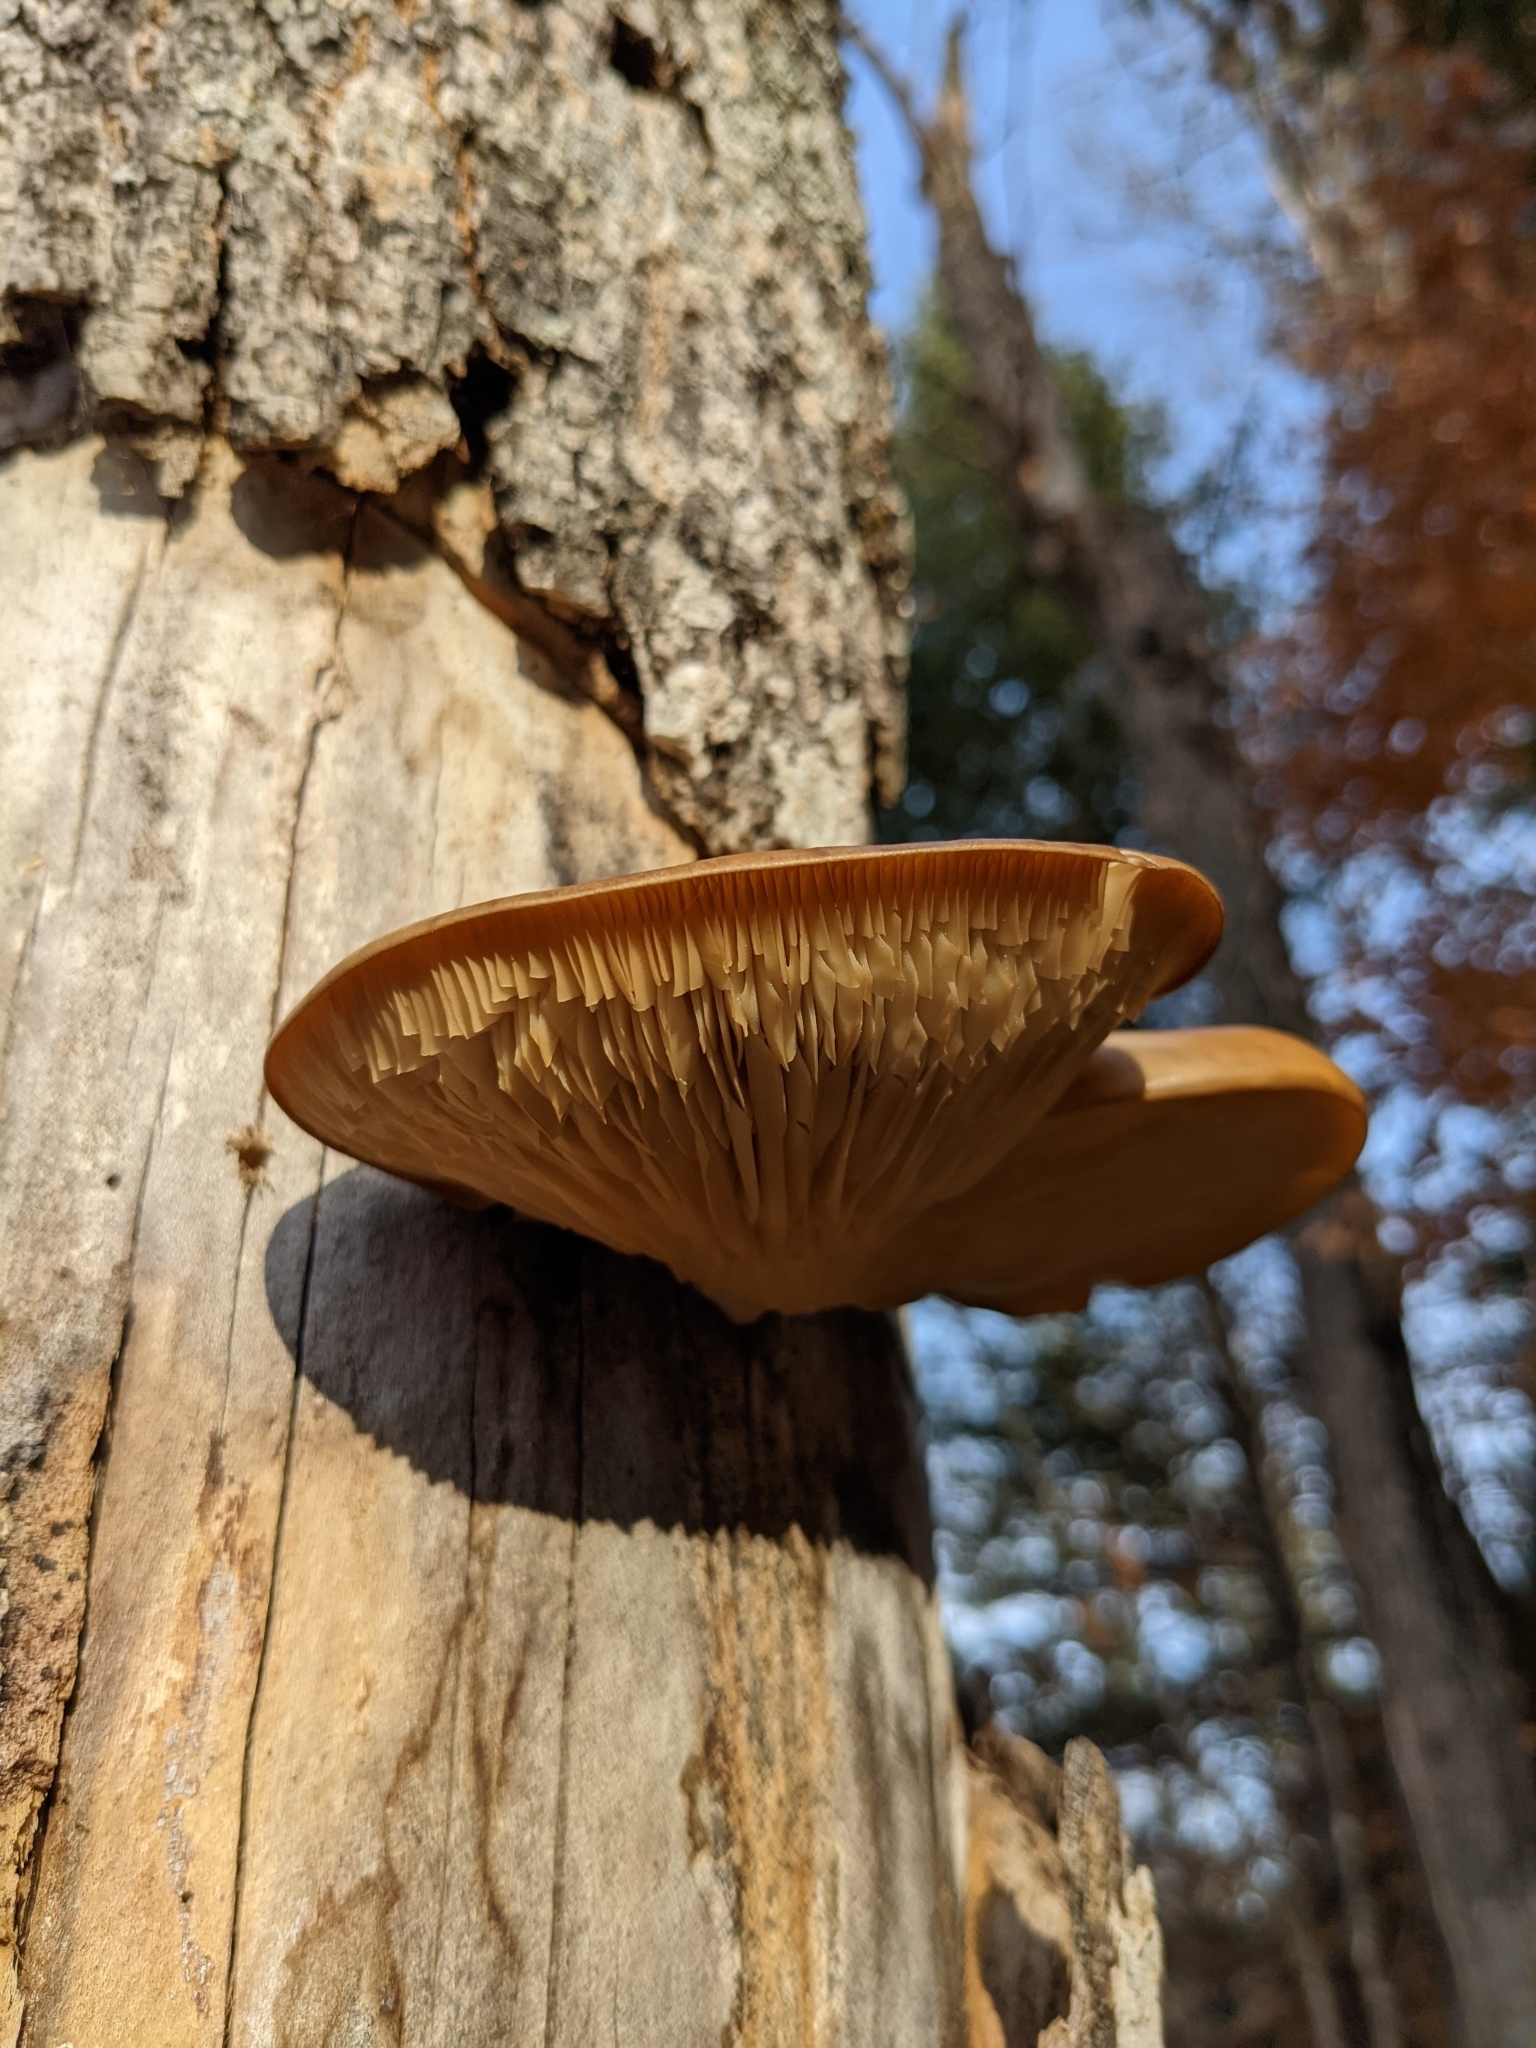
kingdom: Fungi
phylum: Basidiomycota
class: Agaricomycetes
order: Agaricales
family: Sarcomyxaceae
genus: Sarcomyxa
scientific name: Sarcomyxa serotina
